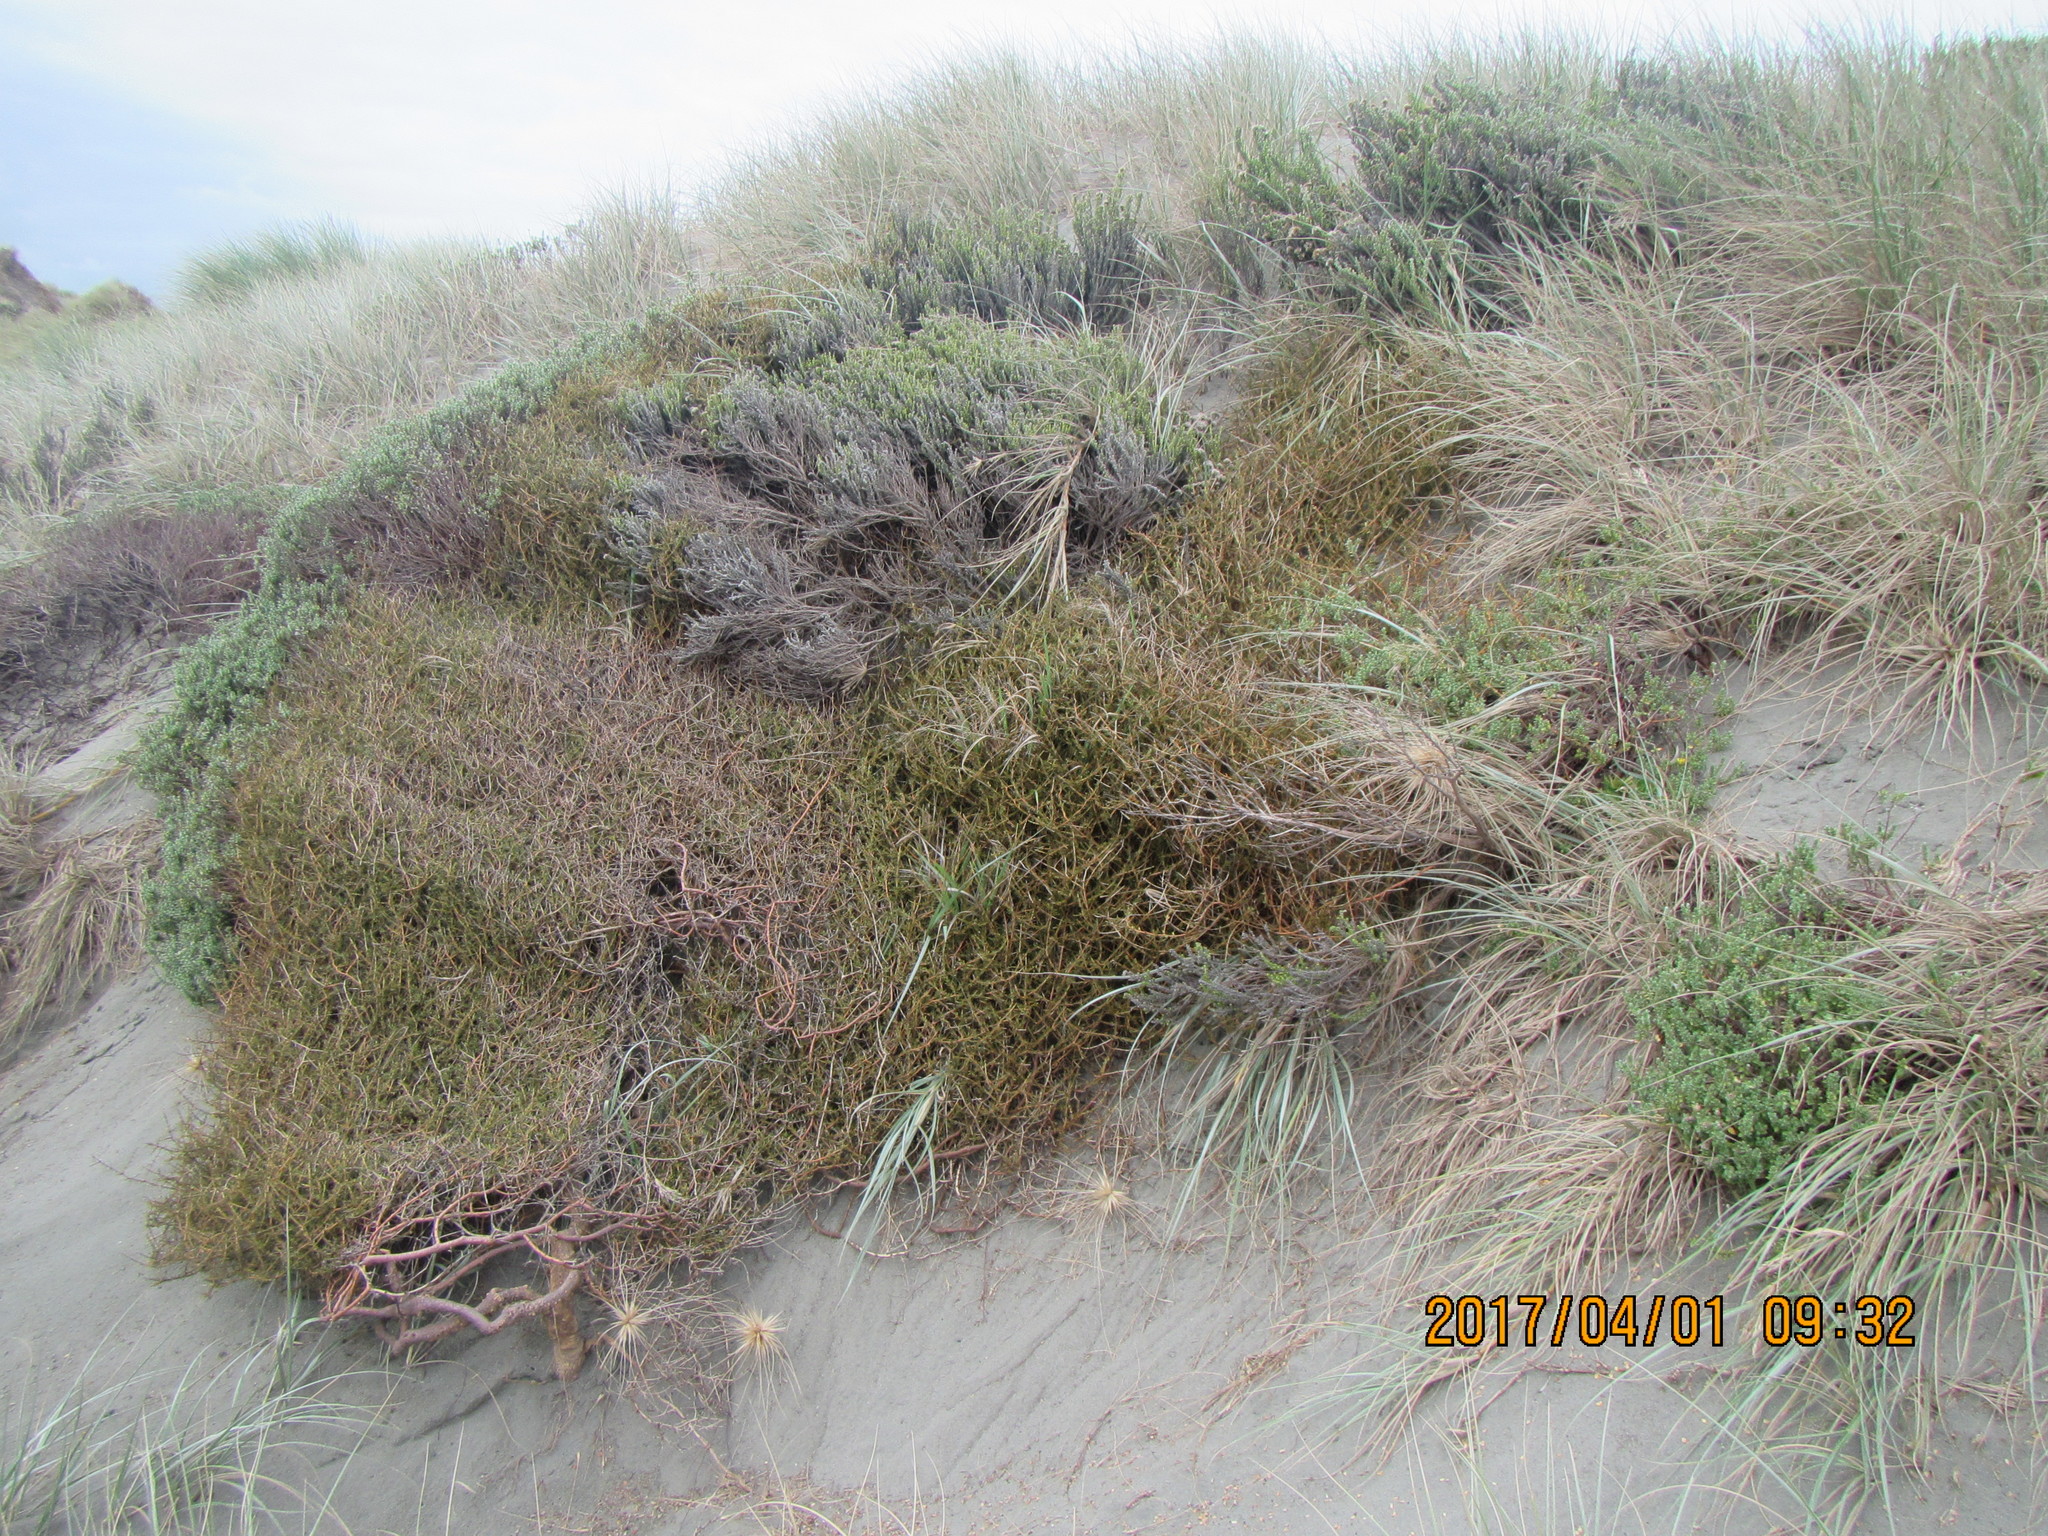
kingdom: Plantae
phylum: Tracheophyta
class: Magnoliopsida
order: Gentianales
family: Rubiaceae
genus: Coprosma
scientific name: Coprosma acerosa
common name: Sand coprosma
